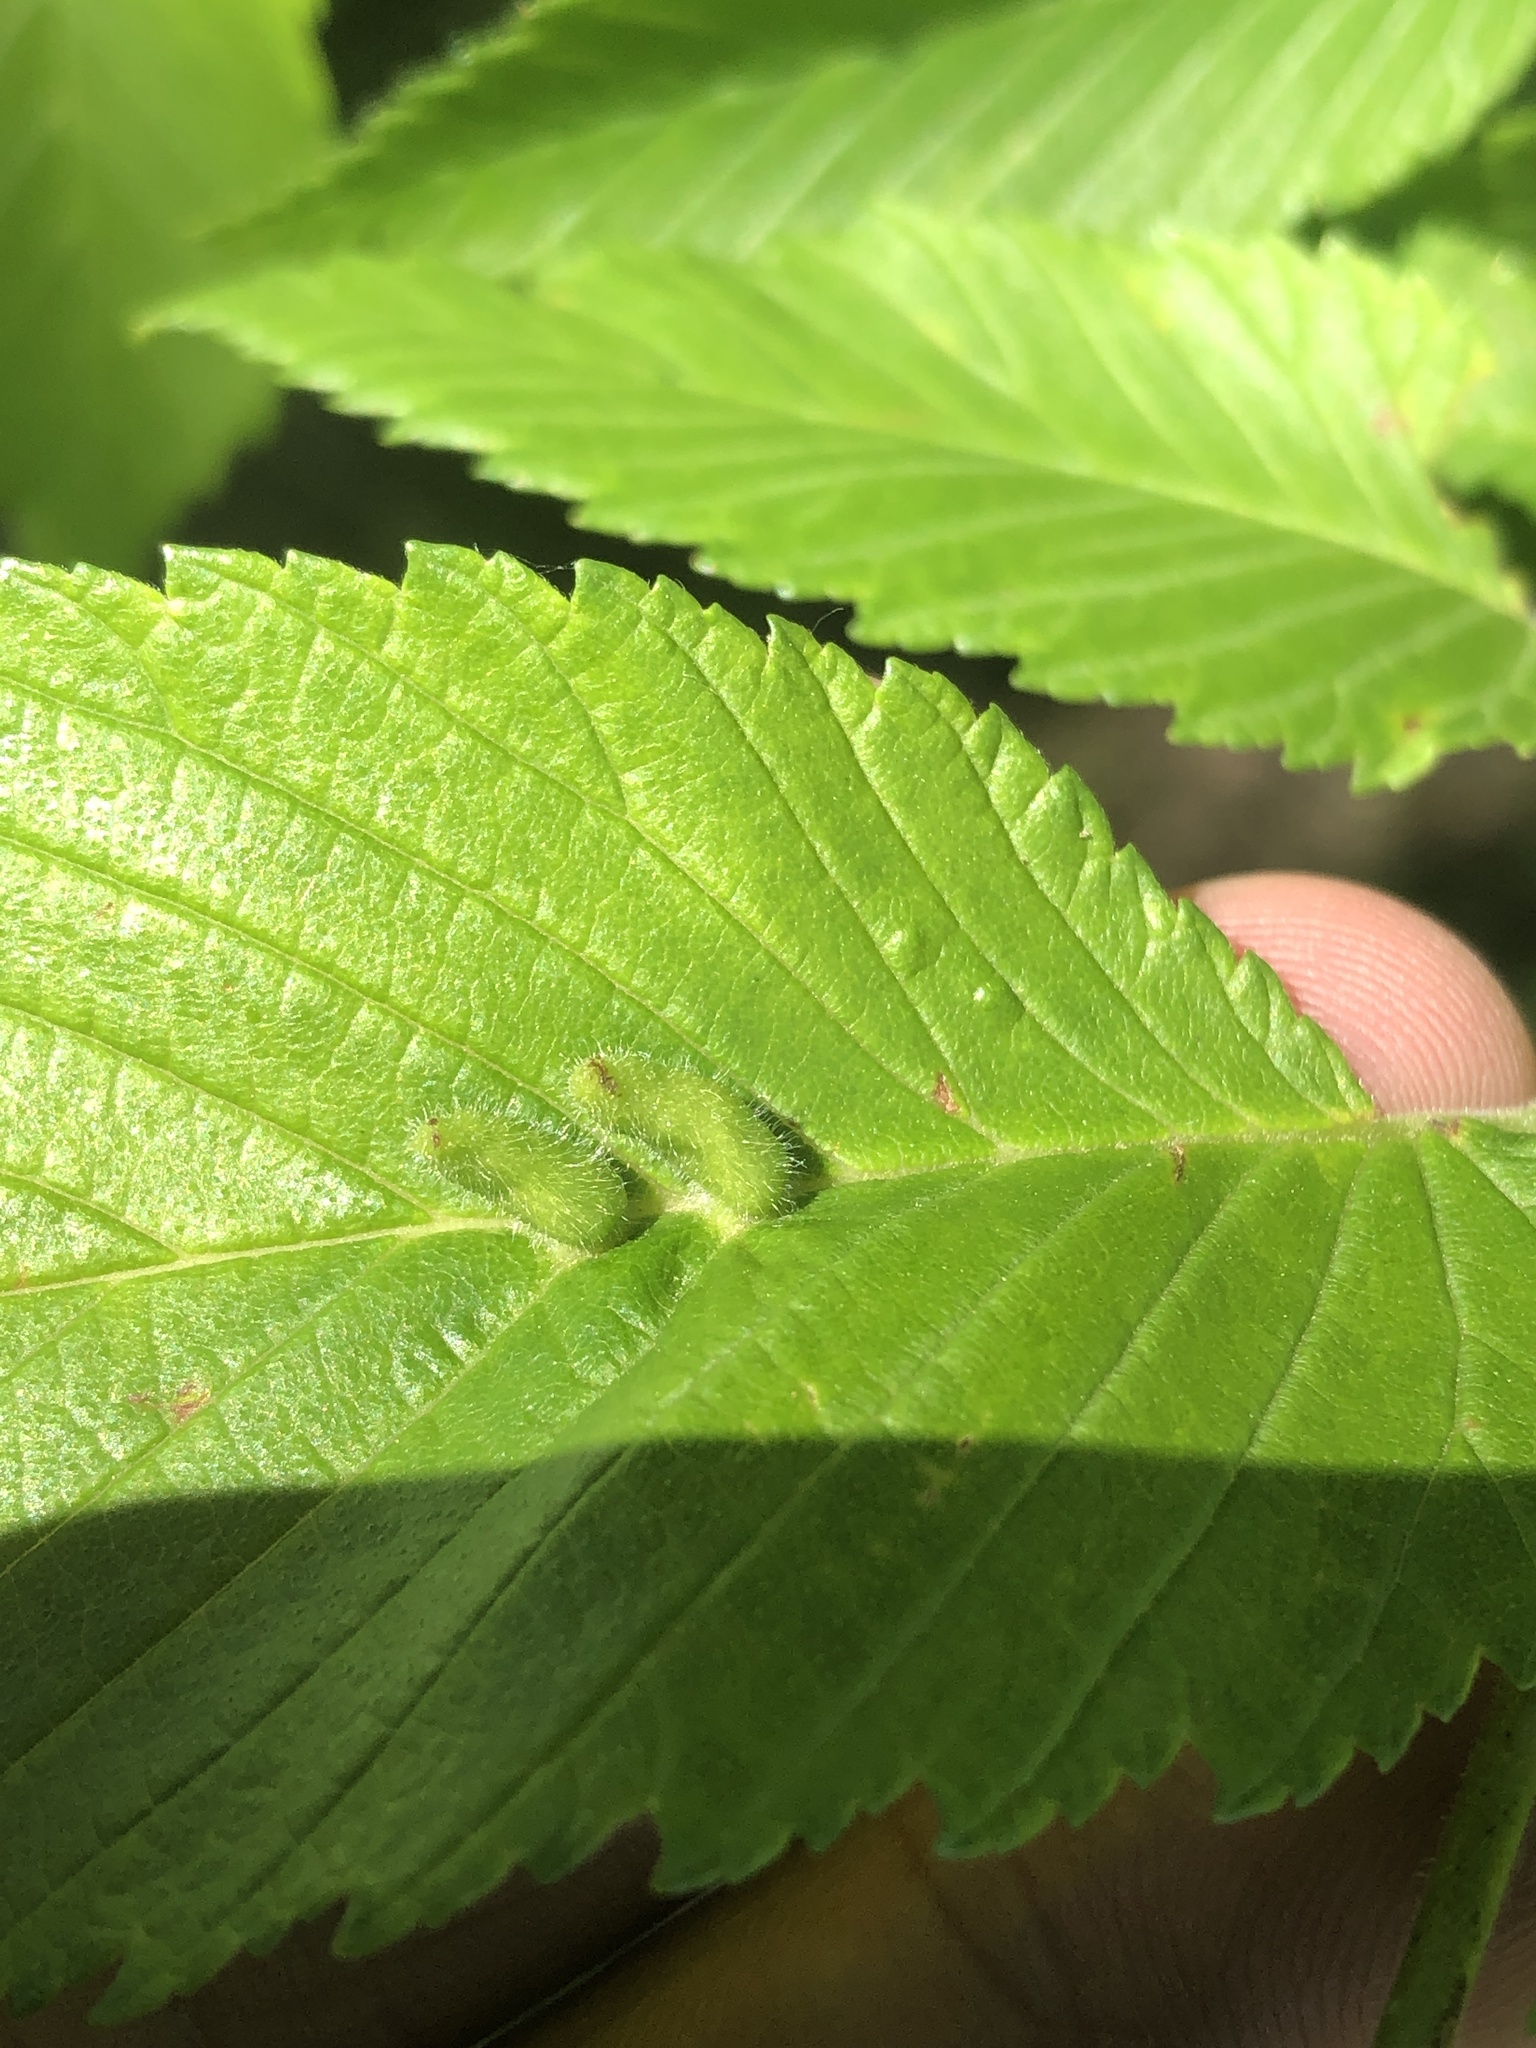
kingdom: Animalia
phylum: Arthropoda
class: Arachnida
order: Trombidiformes
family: Eriophyidae
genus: Aceria
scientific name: Aceria
